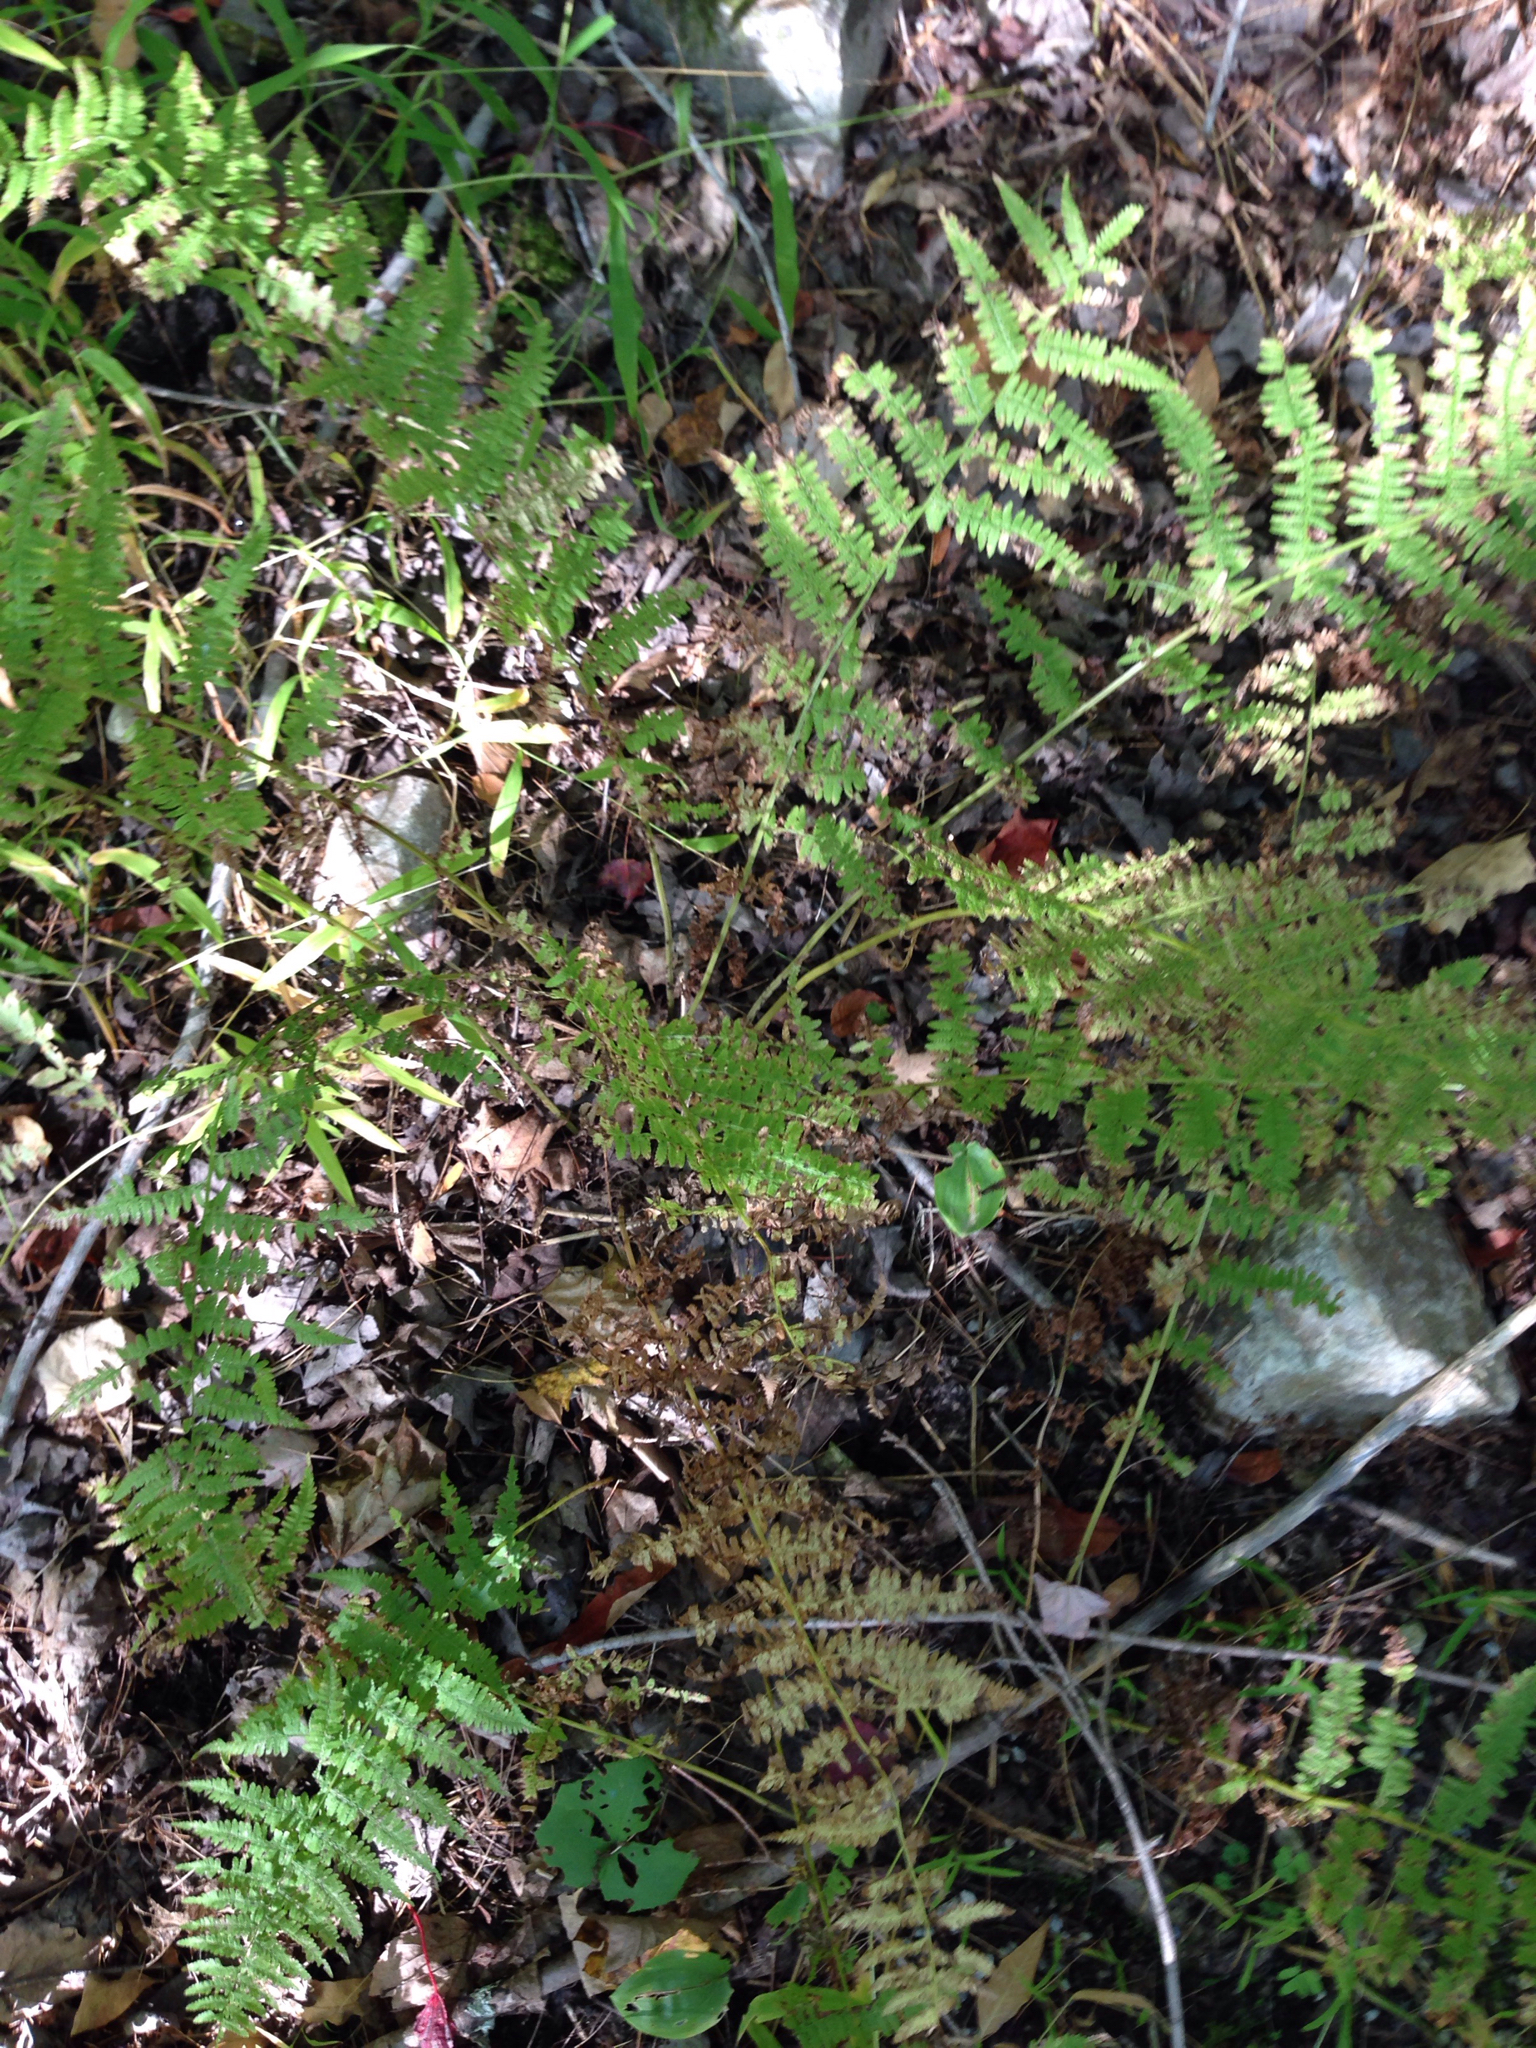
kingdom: Plantae
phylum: Tracheophyta
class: Polypodiopsida
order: Polypodiales
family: Athyriaceae
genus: Athyrium
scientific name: Athyrium angustum
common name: Northern lady fern
